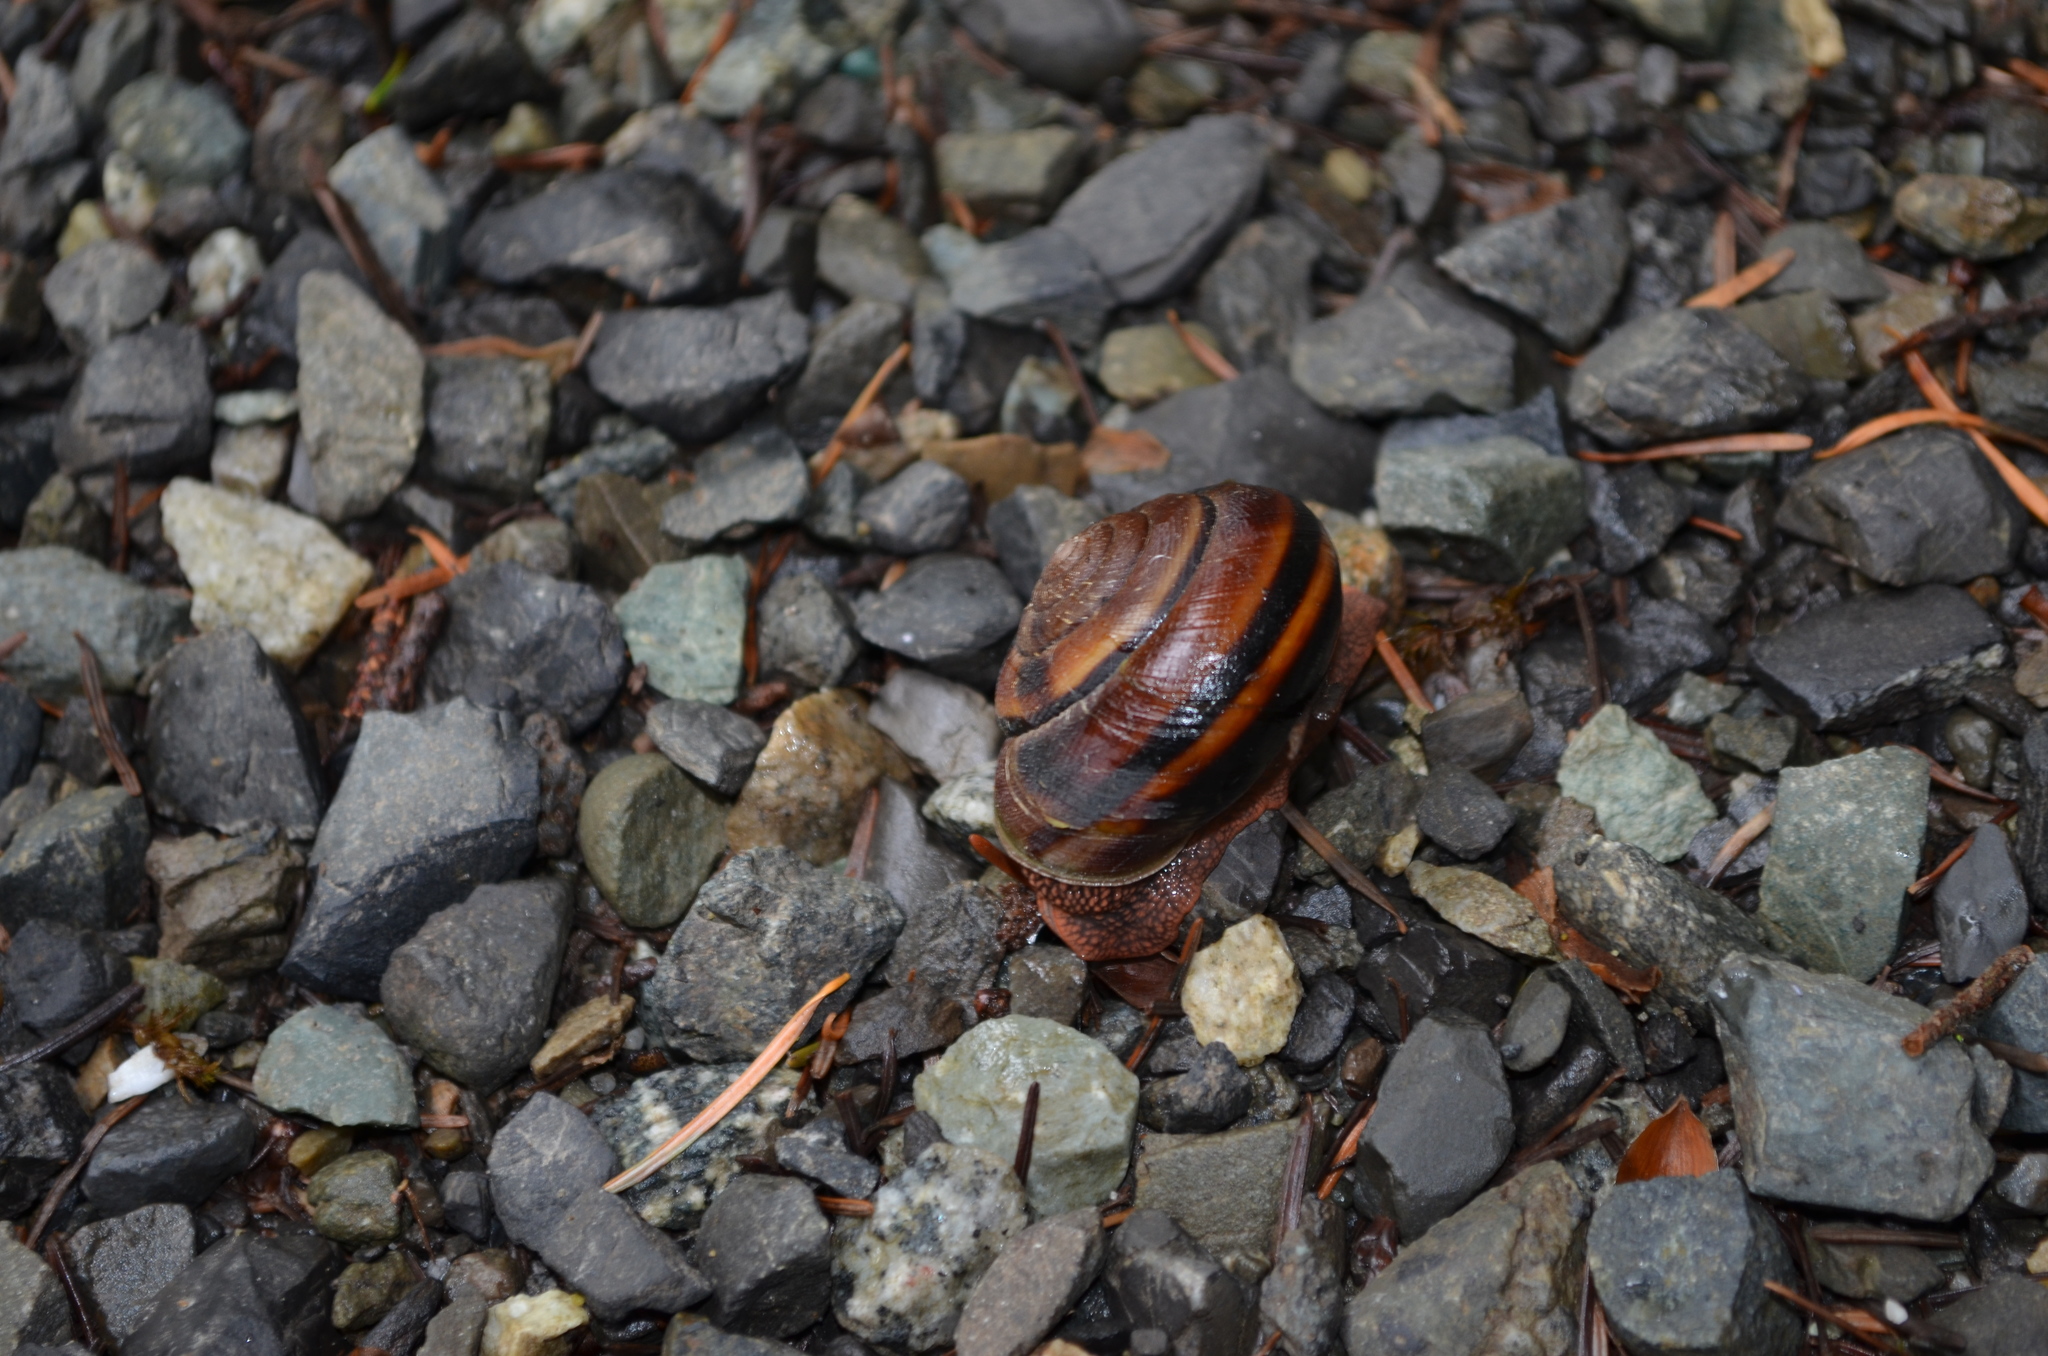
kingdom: Animalia
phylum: Mollusca
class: Gastropoda
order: Stylommatophora
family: Xanthonychidae
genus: Monadenia
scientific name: Monadenia fidelis
